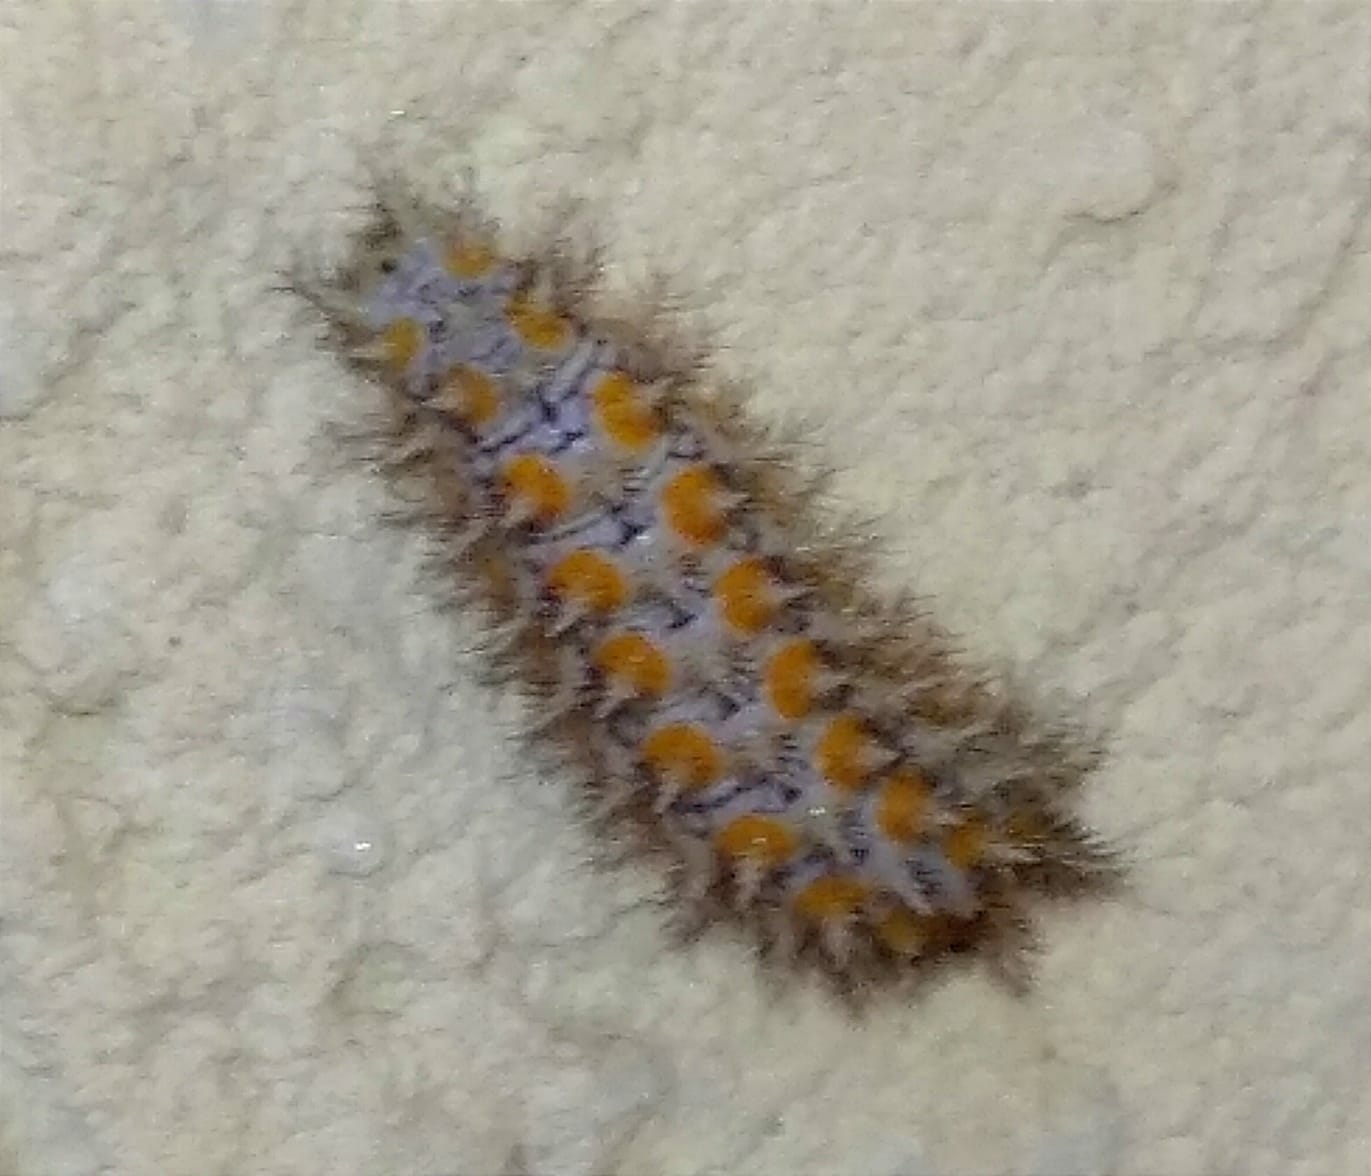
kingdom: Animalia
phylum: Arthropoda
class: Insecta
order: Lepidoptera
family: Nymphalidae
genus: Melitaea
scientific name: Melitaea didyma
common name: Spotted fritillary
